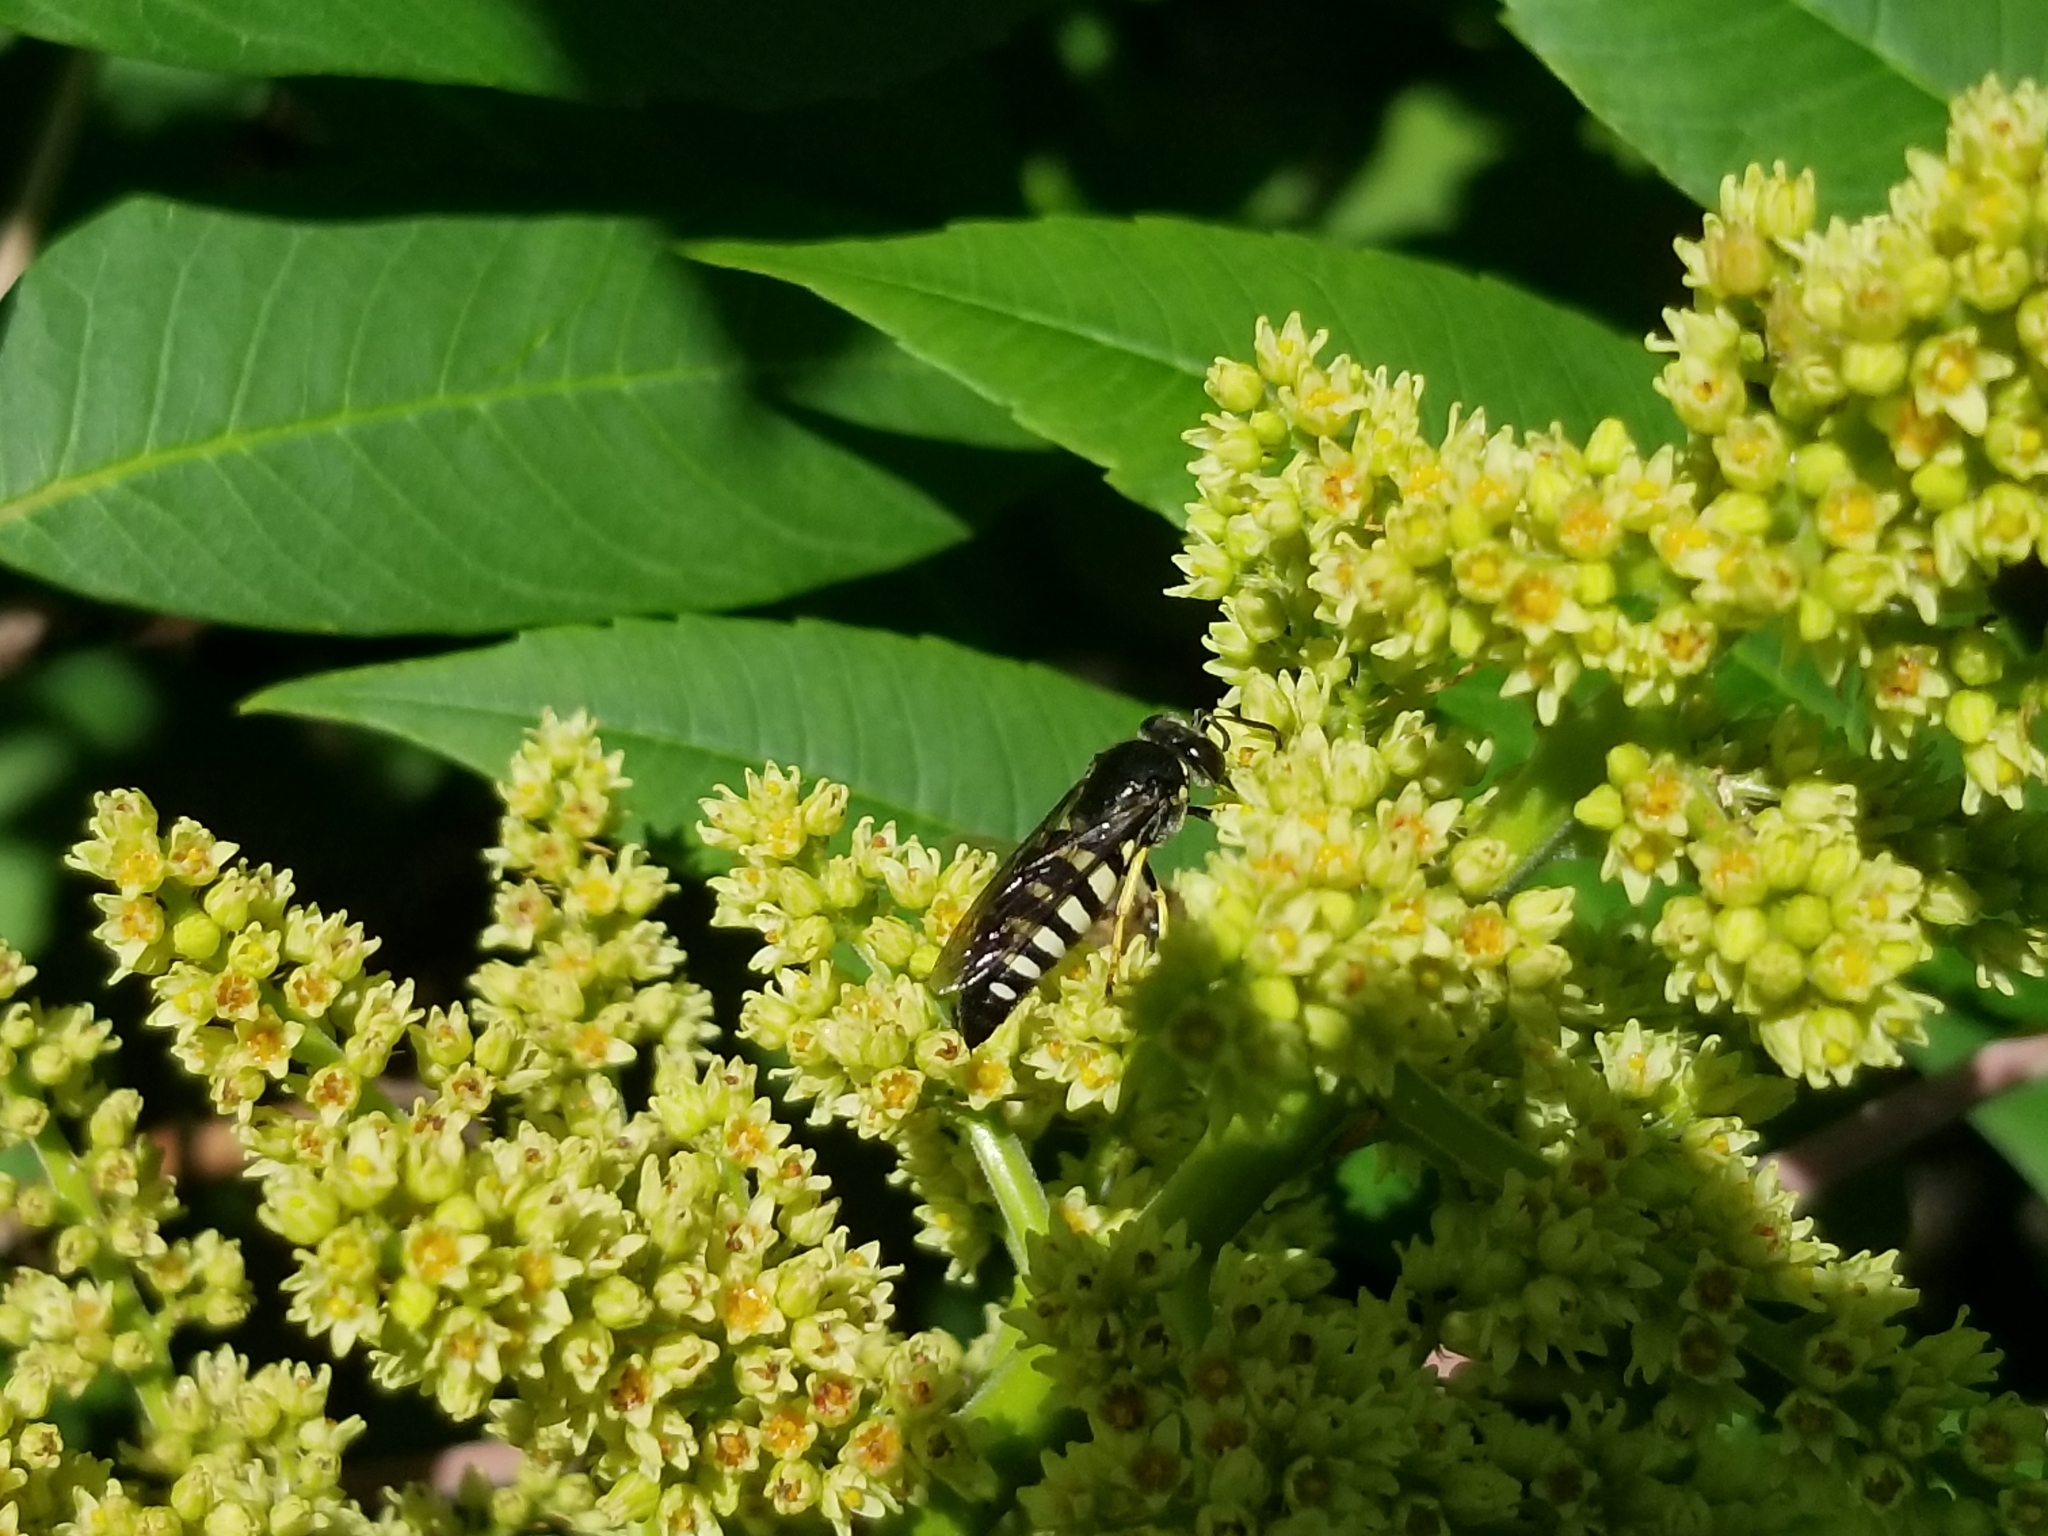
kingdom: Animalia
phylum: Arthropoda
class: Insecta
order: Hymenoptera
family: Crabronidae
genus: Bicyrtes
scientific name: Bicyrtes quadrifasciatus
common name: Four-banded stink bug hunter wasp
